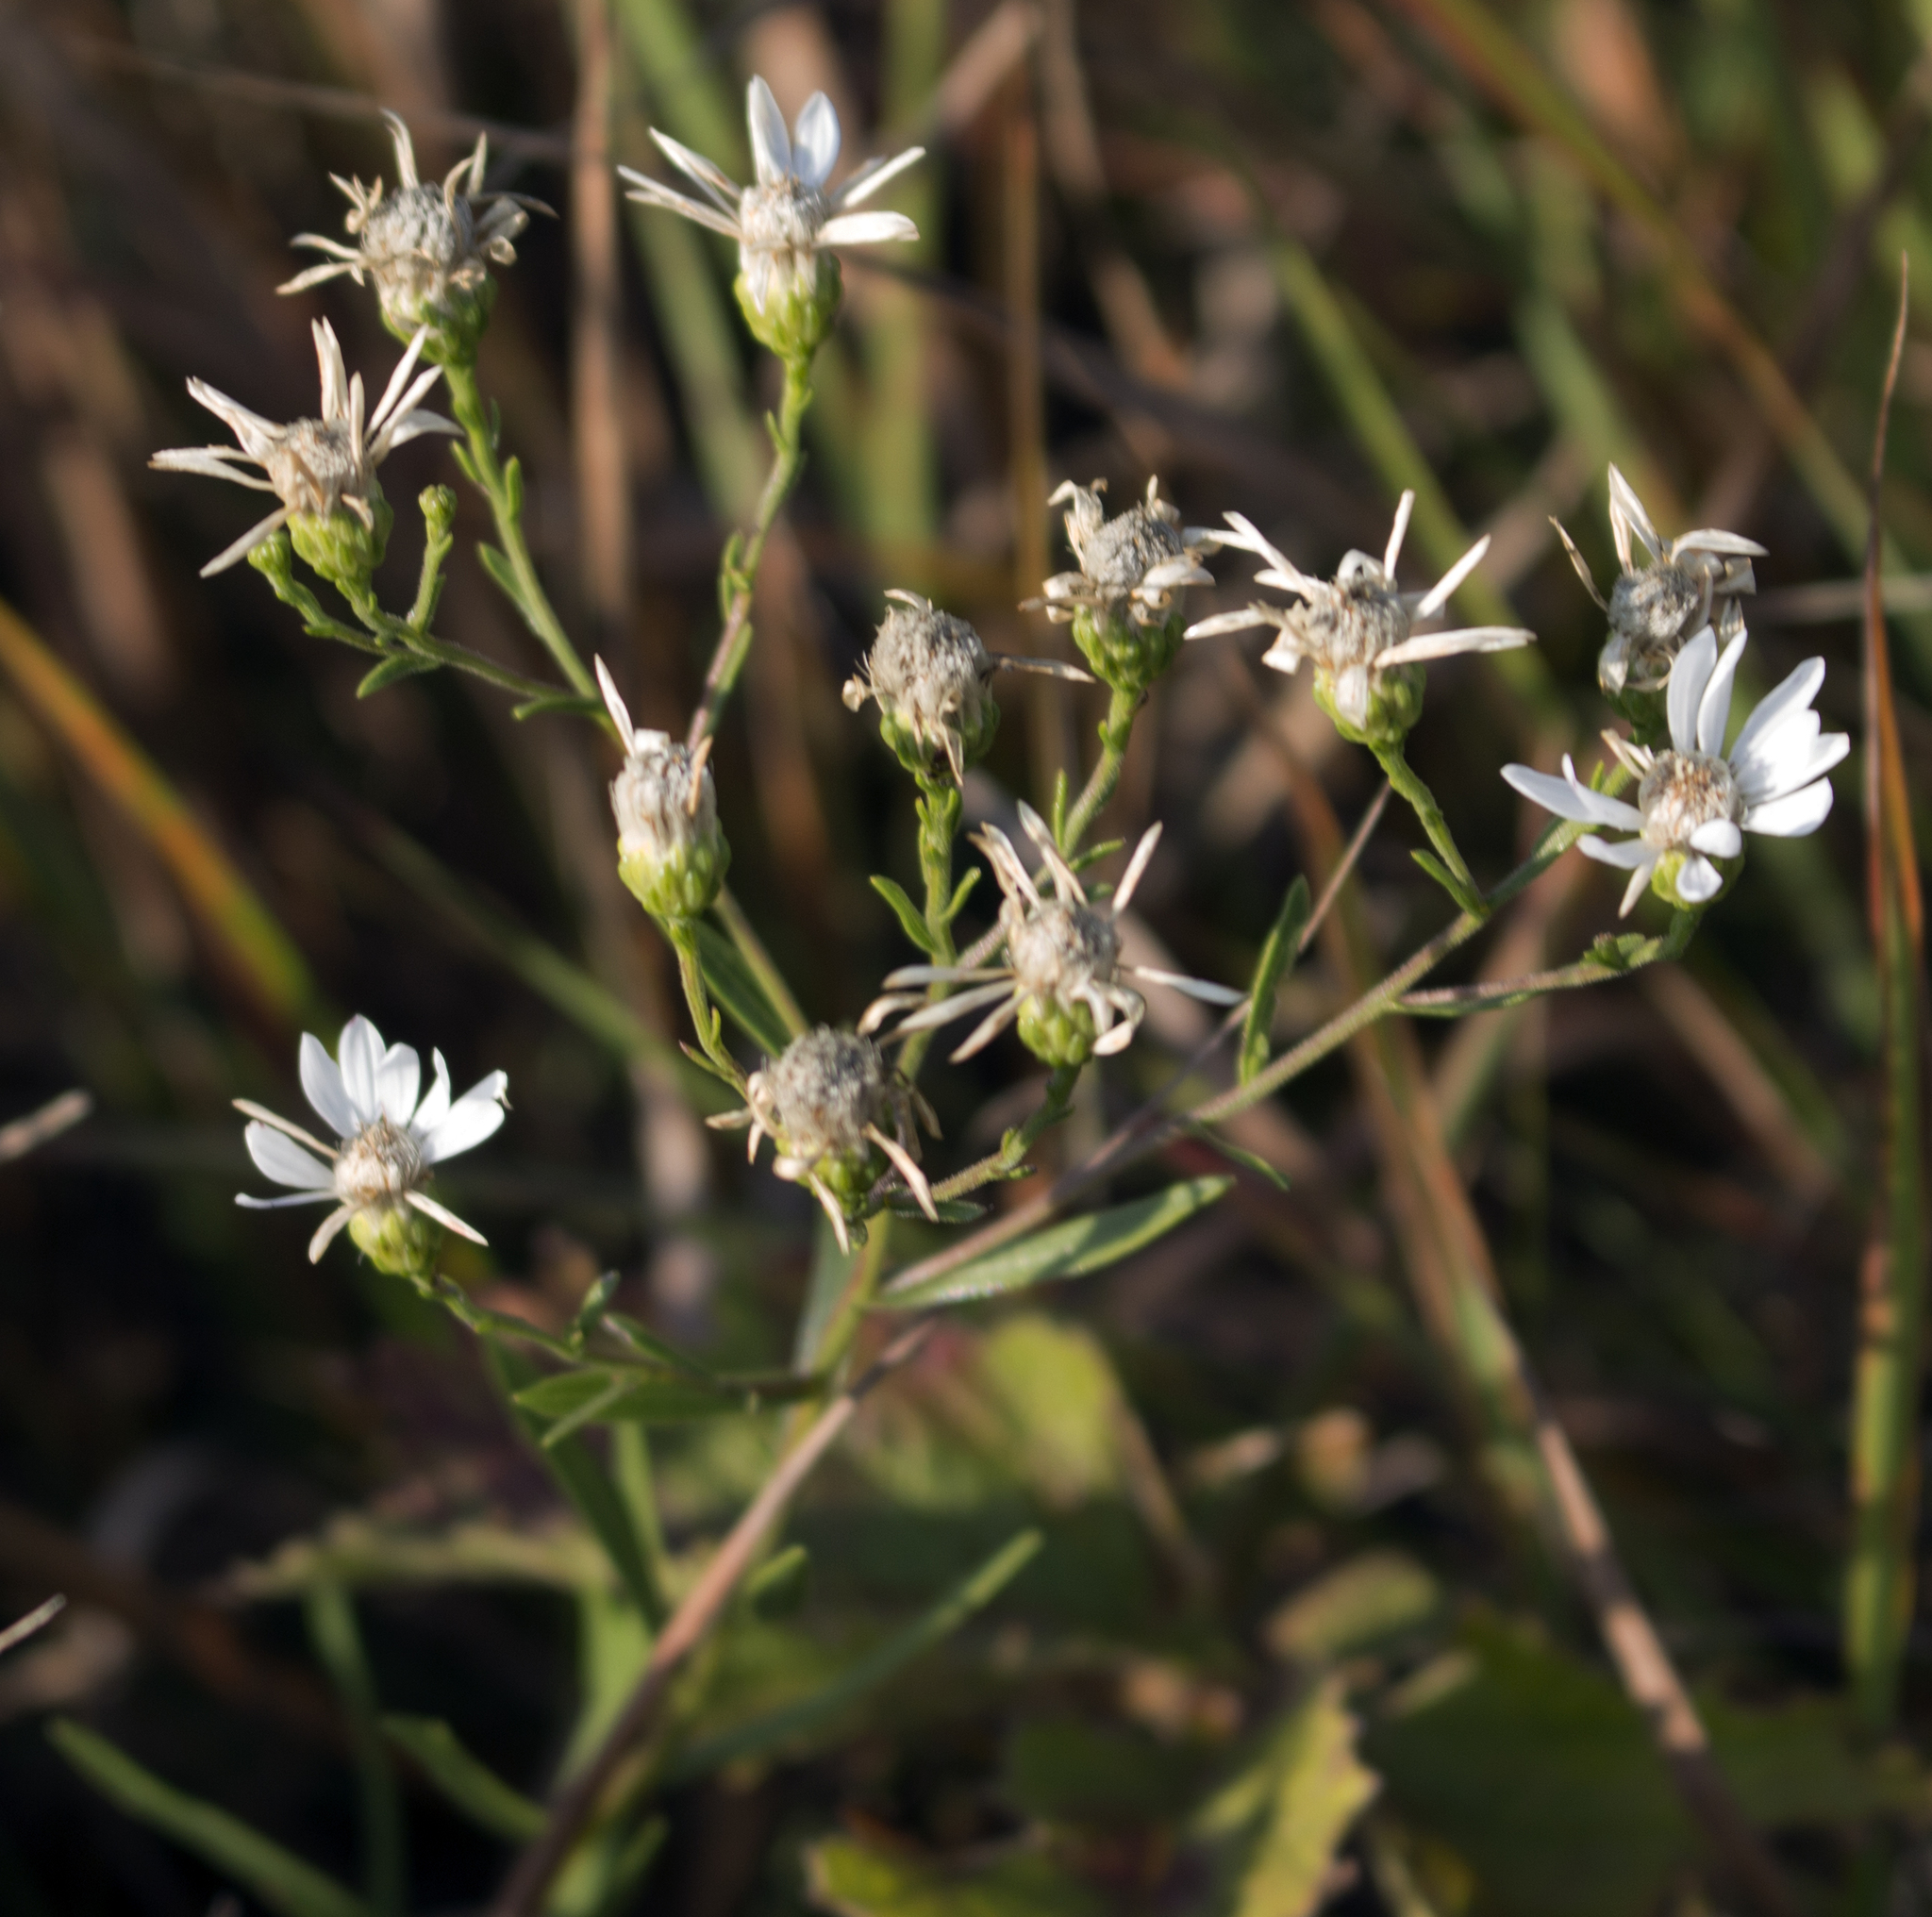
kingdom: Plantae
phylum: Tracheophyta
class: Magnoliopsida
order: Asterales
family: Asteraceae
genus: Solidago
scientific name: Solidago ptarmicoides
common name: White flat-top goldenrod
